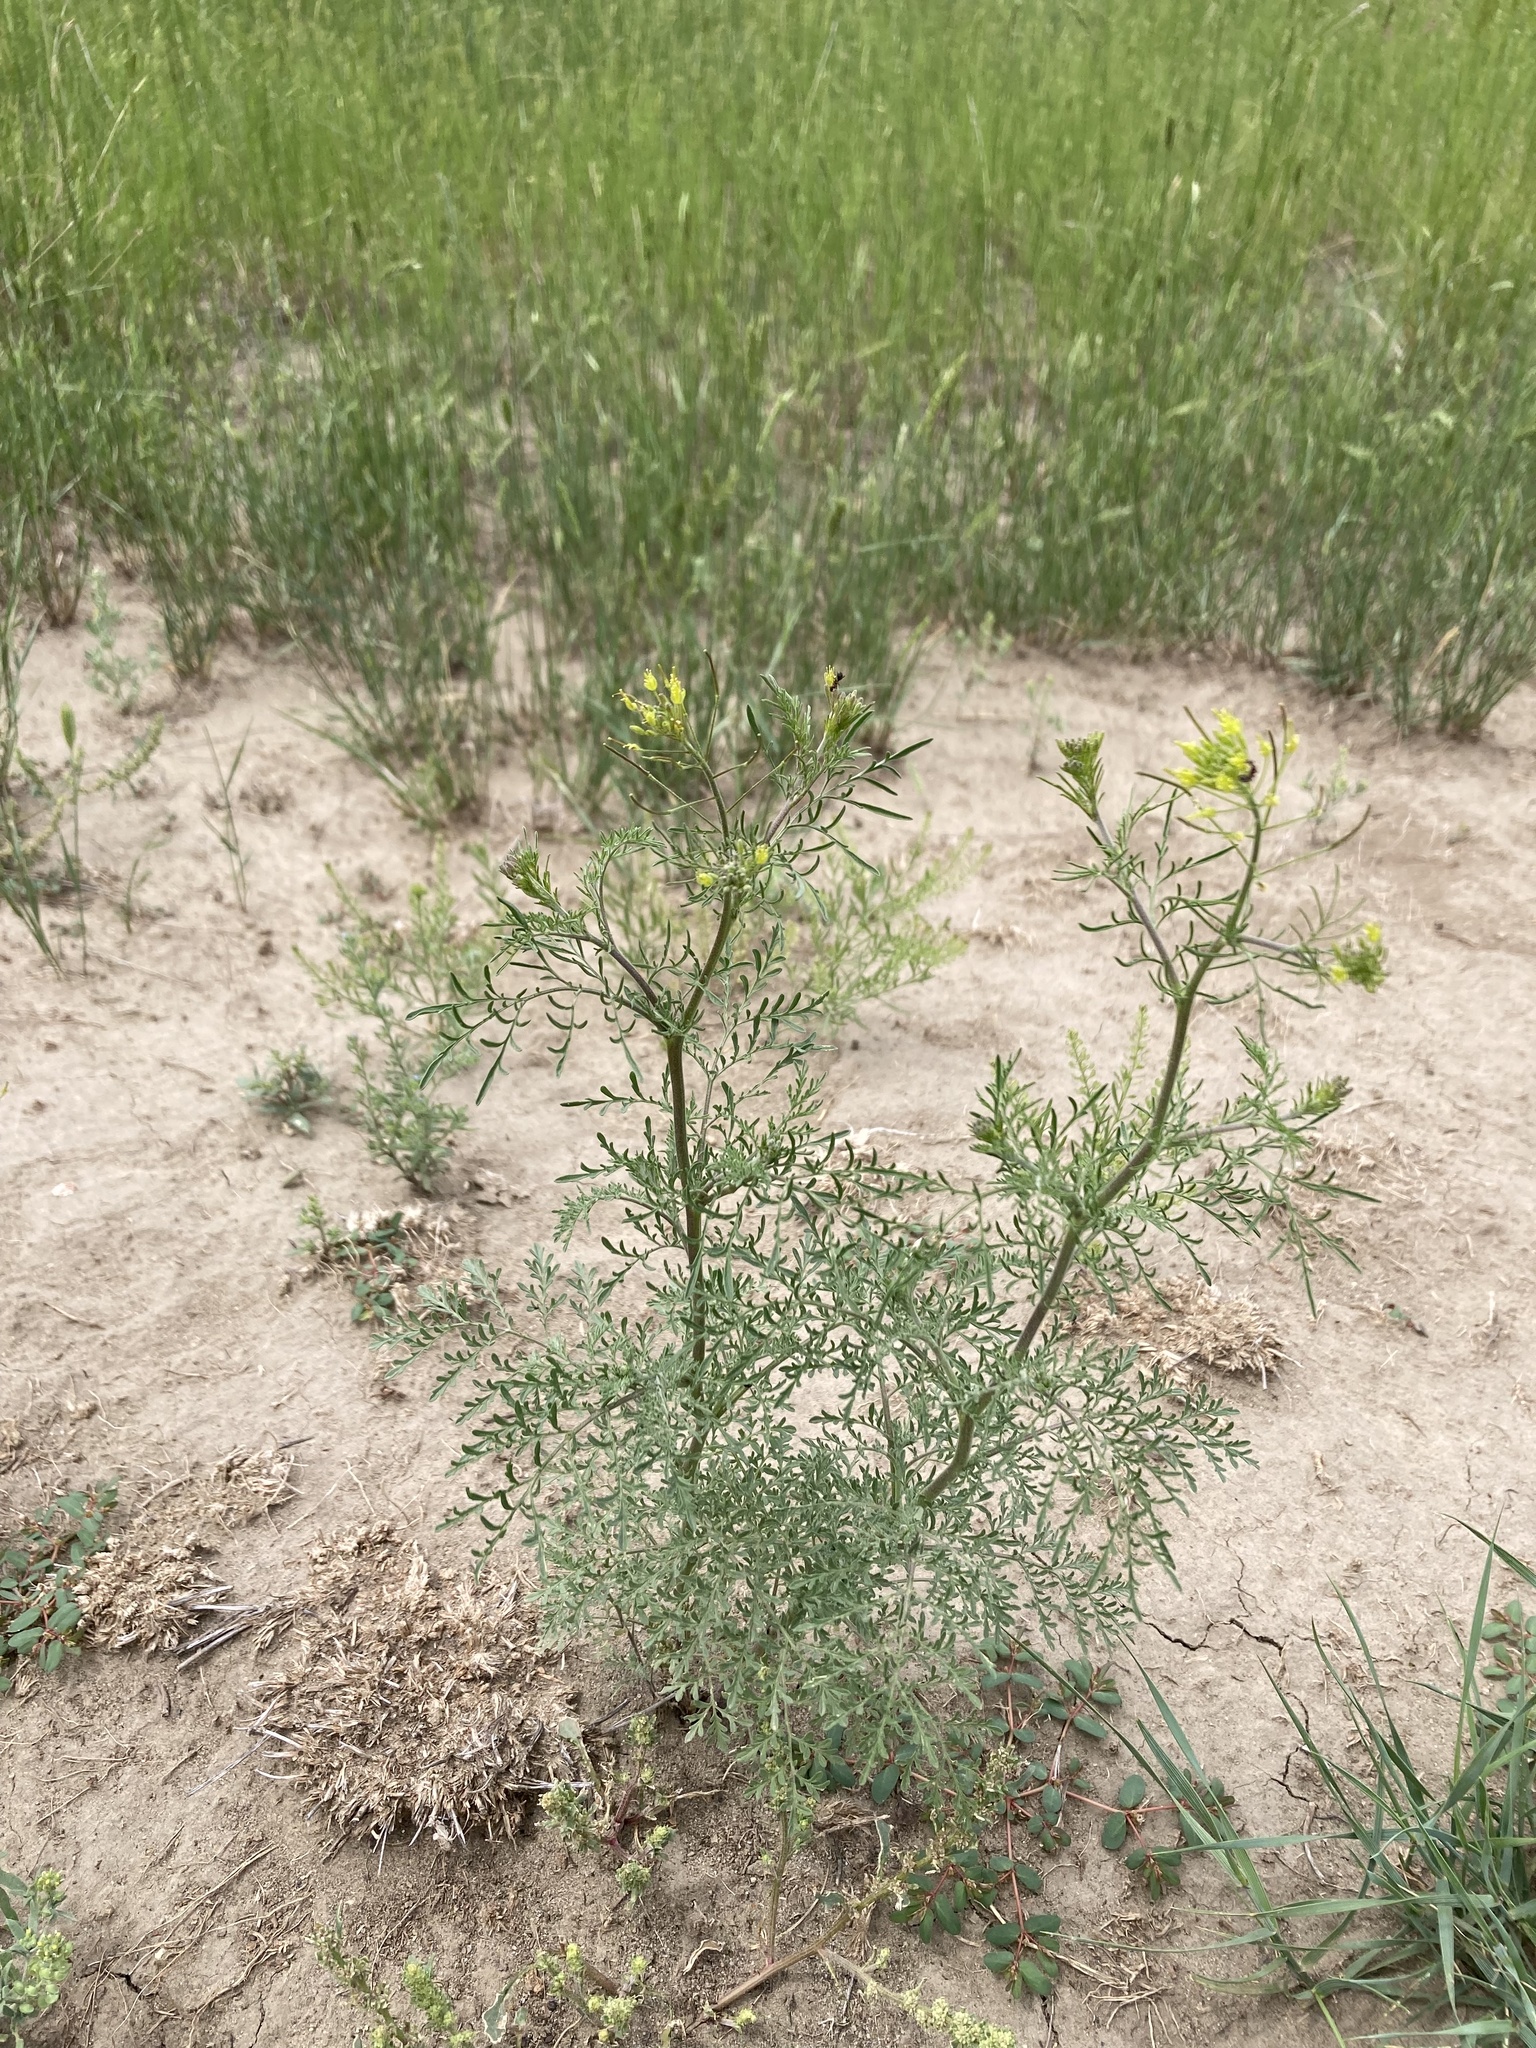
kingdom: Plantae
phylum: Tracheophyta
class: Magnoliopsida
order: Brassicales
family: Brassicaceae
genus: Descurainia
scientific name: Descurainia sophia
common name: Flixweed
